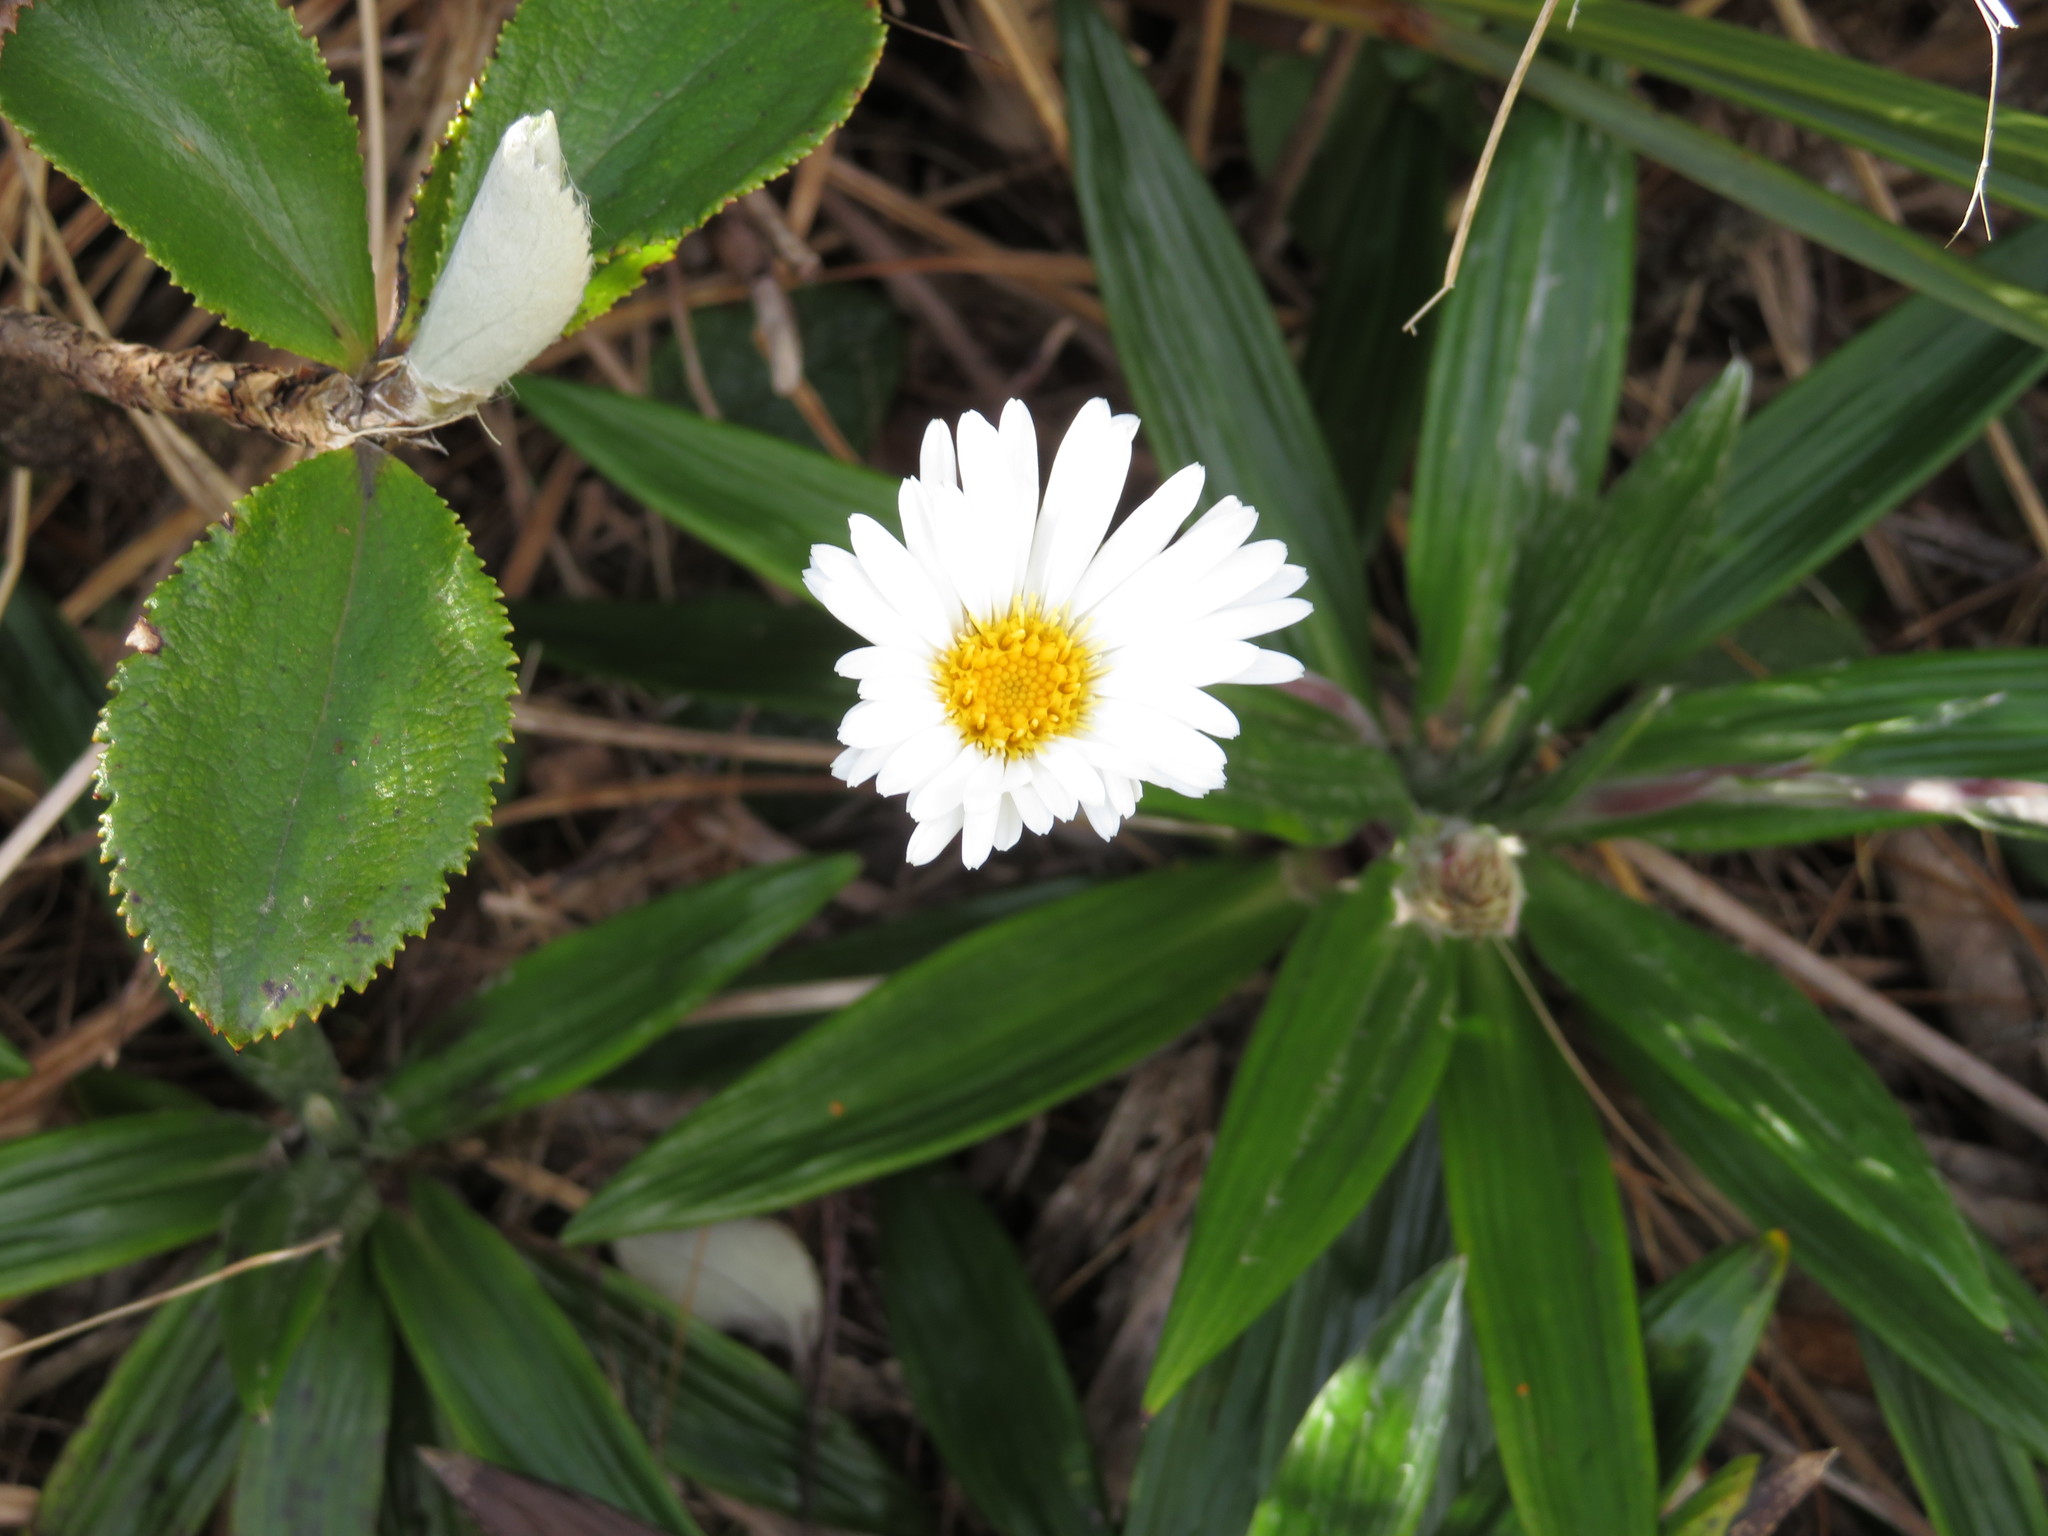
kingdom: Plantae
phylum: Tracheophyta
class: Magnoliopsida
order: Asterales
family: Asteraceae
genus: Celmisia
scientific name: Celmisia spectabilis
